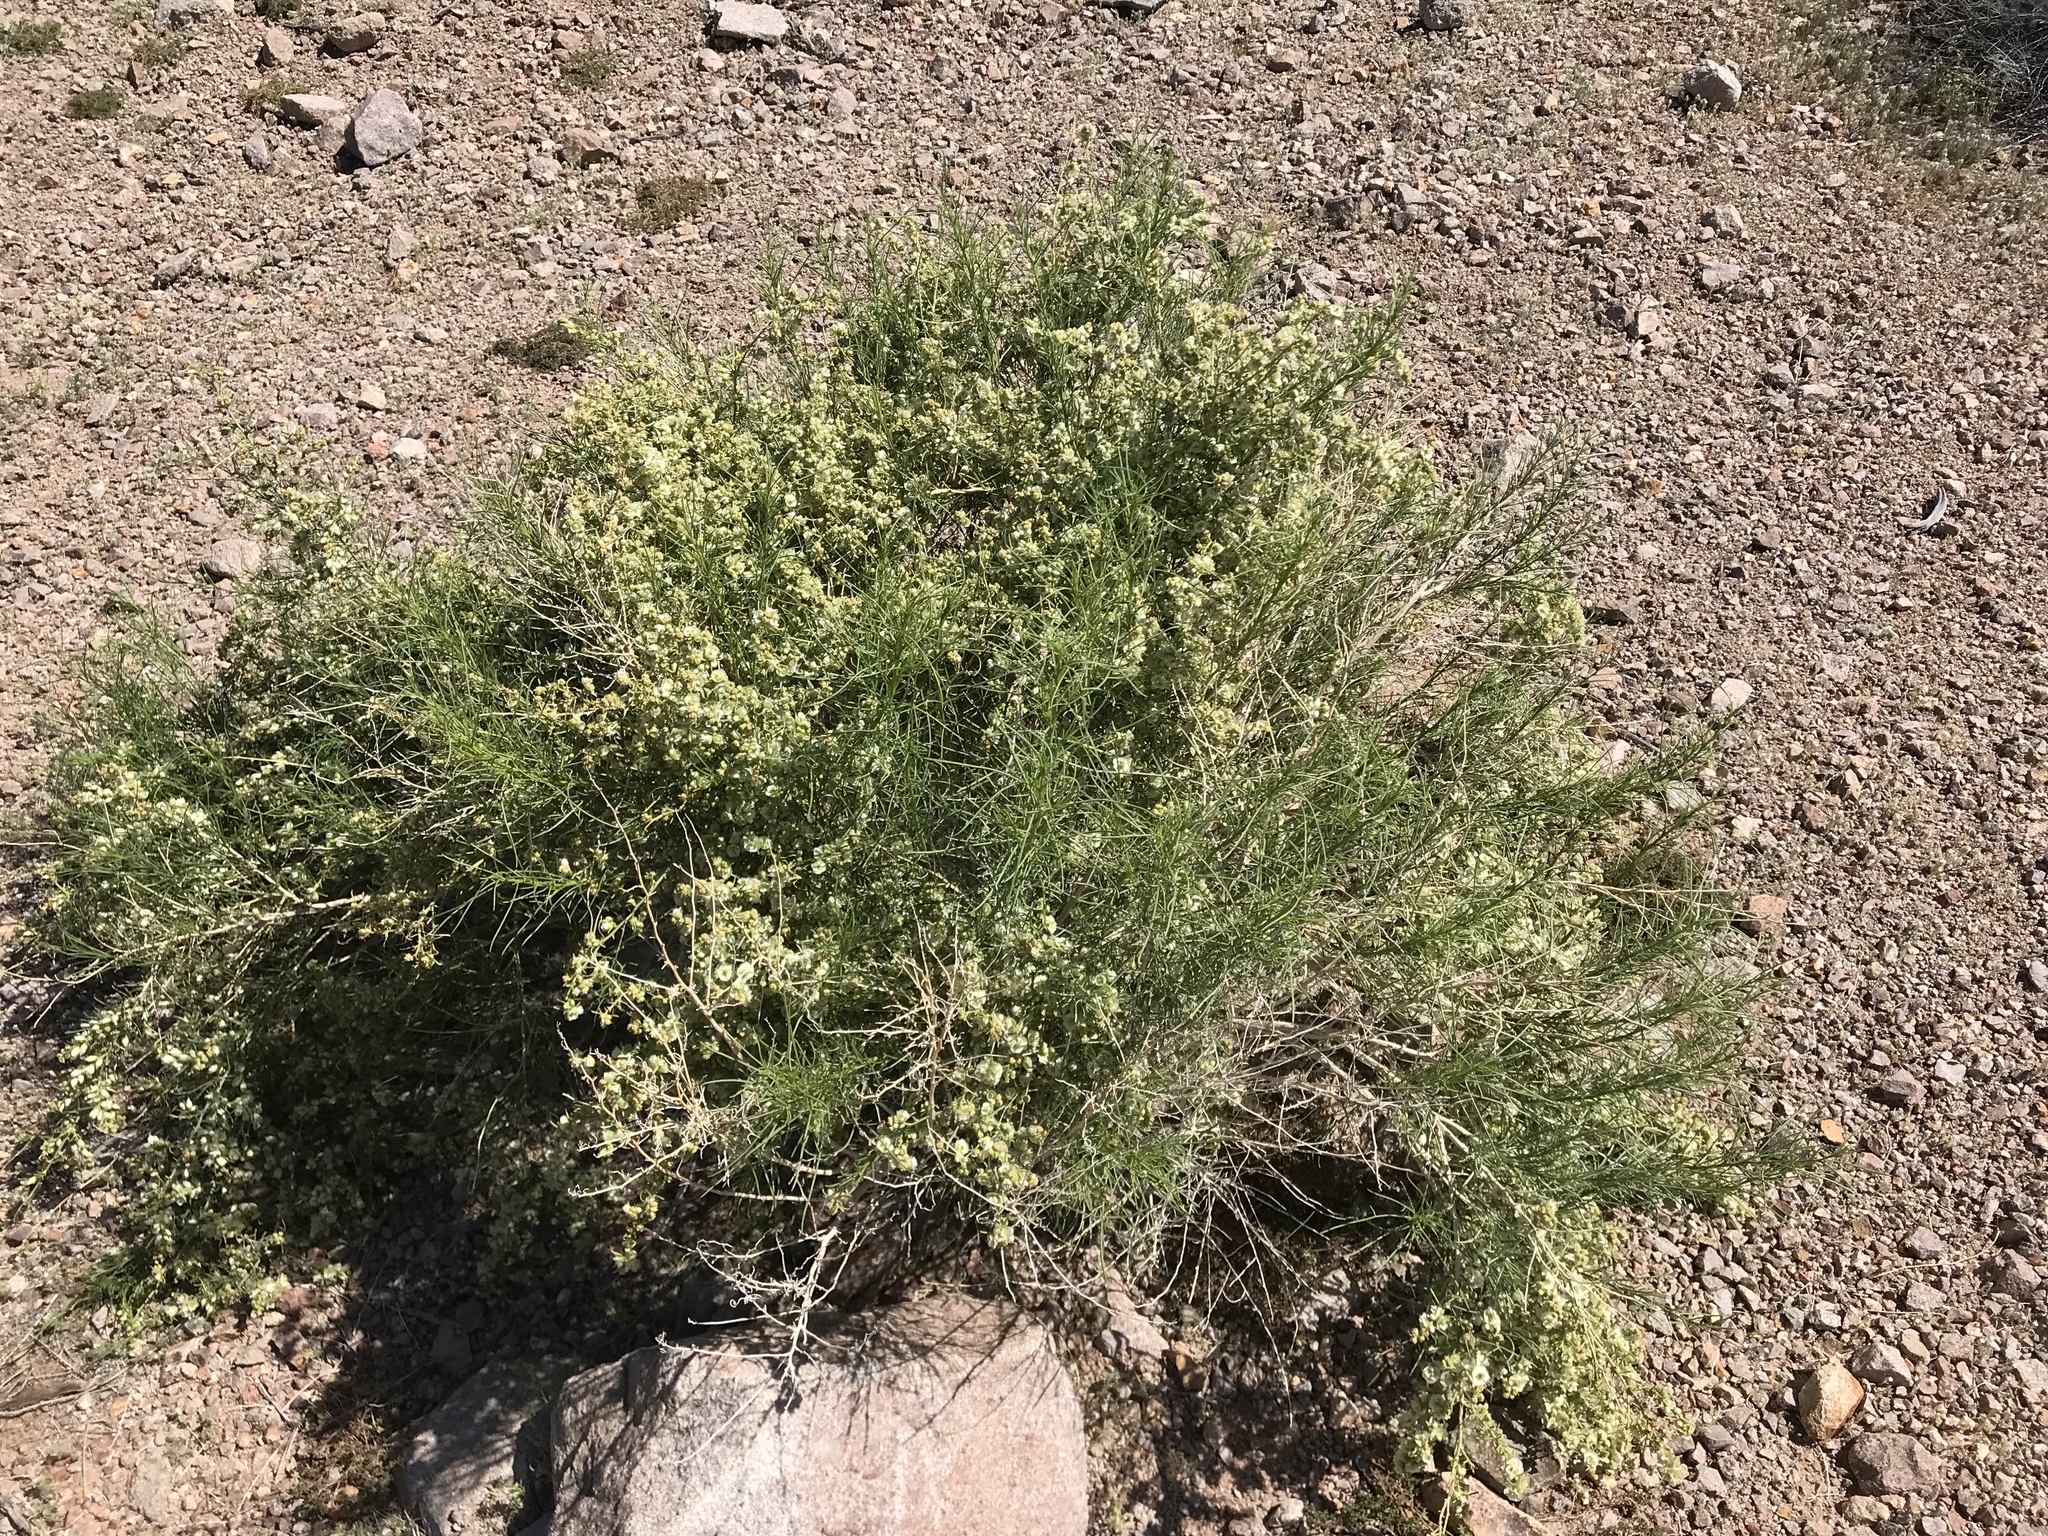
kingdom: Plantae
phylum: Tracheophyta
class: Magnoliopsida
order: Asterales
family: Asteraceae
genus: Ambrosia
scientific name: Ambrosia salsola
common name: Burrobrush
